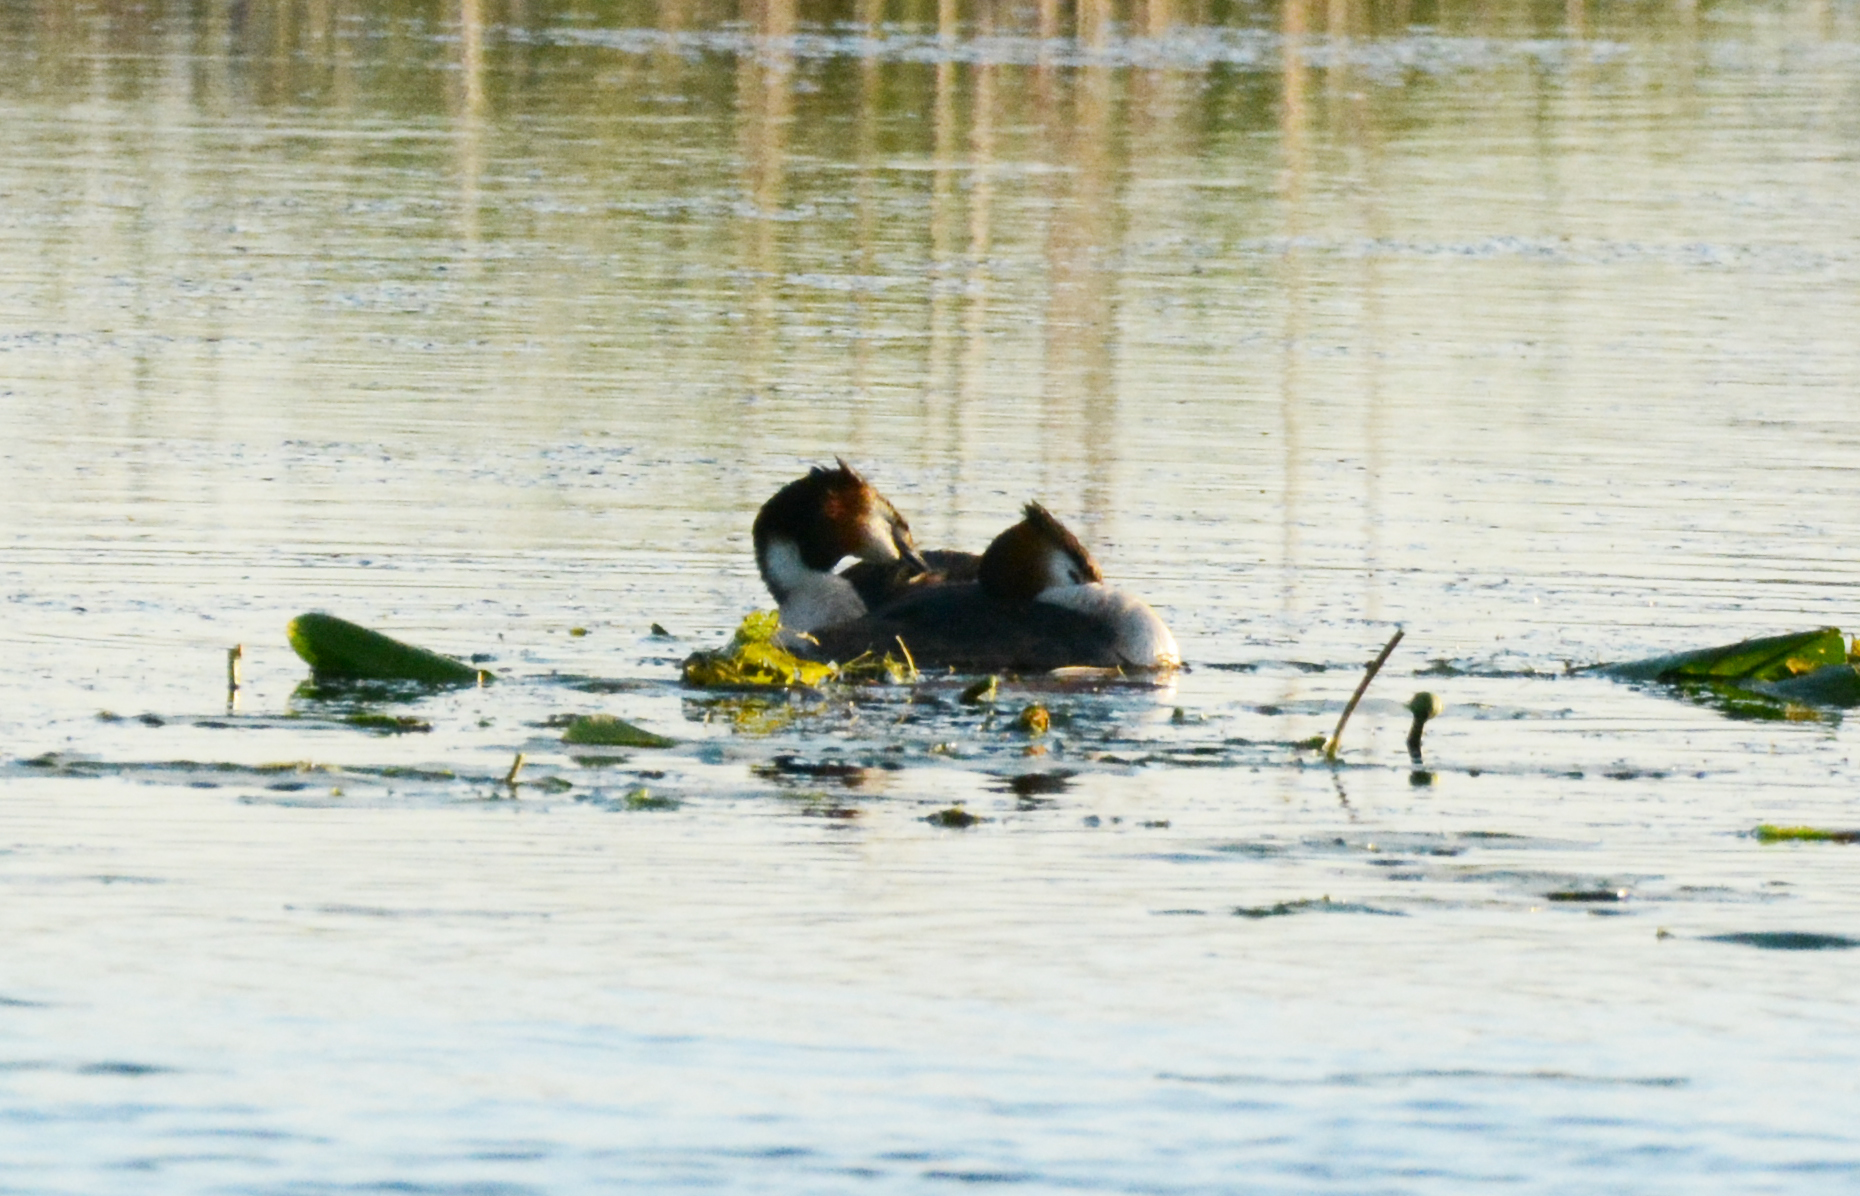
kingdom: Animalia
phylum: Chordata
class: Aves
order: Podicipediformes
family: Podicipedidae
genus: Podiceps
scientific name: Podiceps cristatus
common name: Great crested grebe
